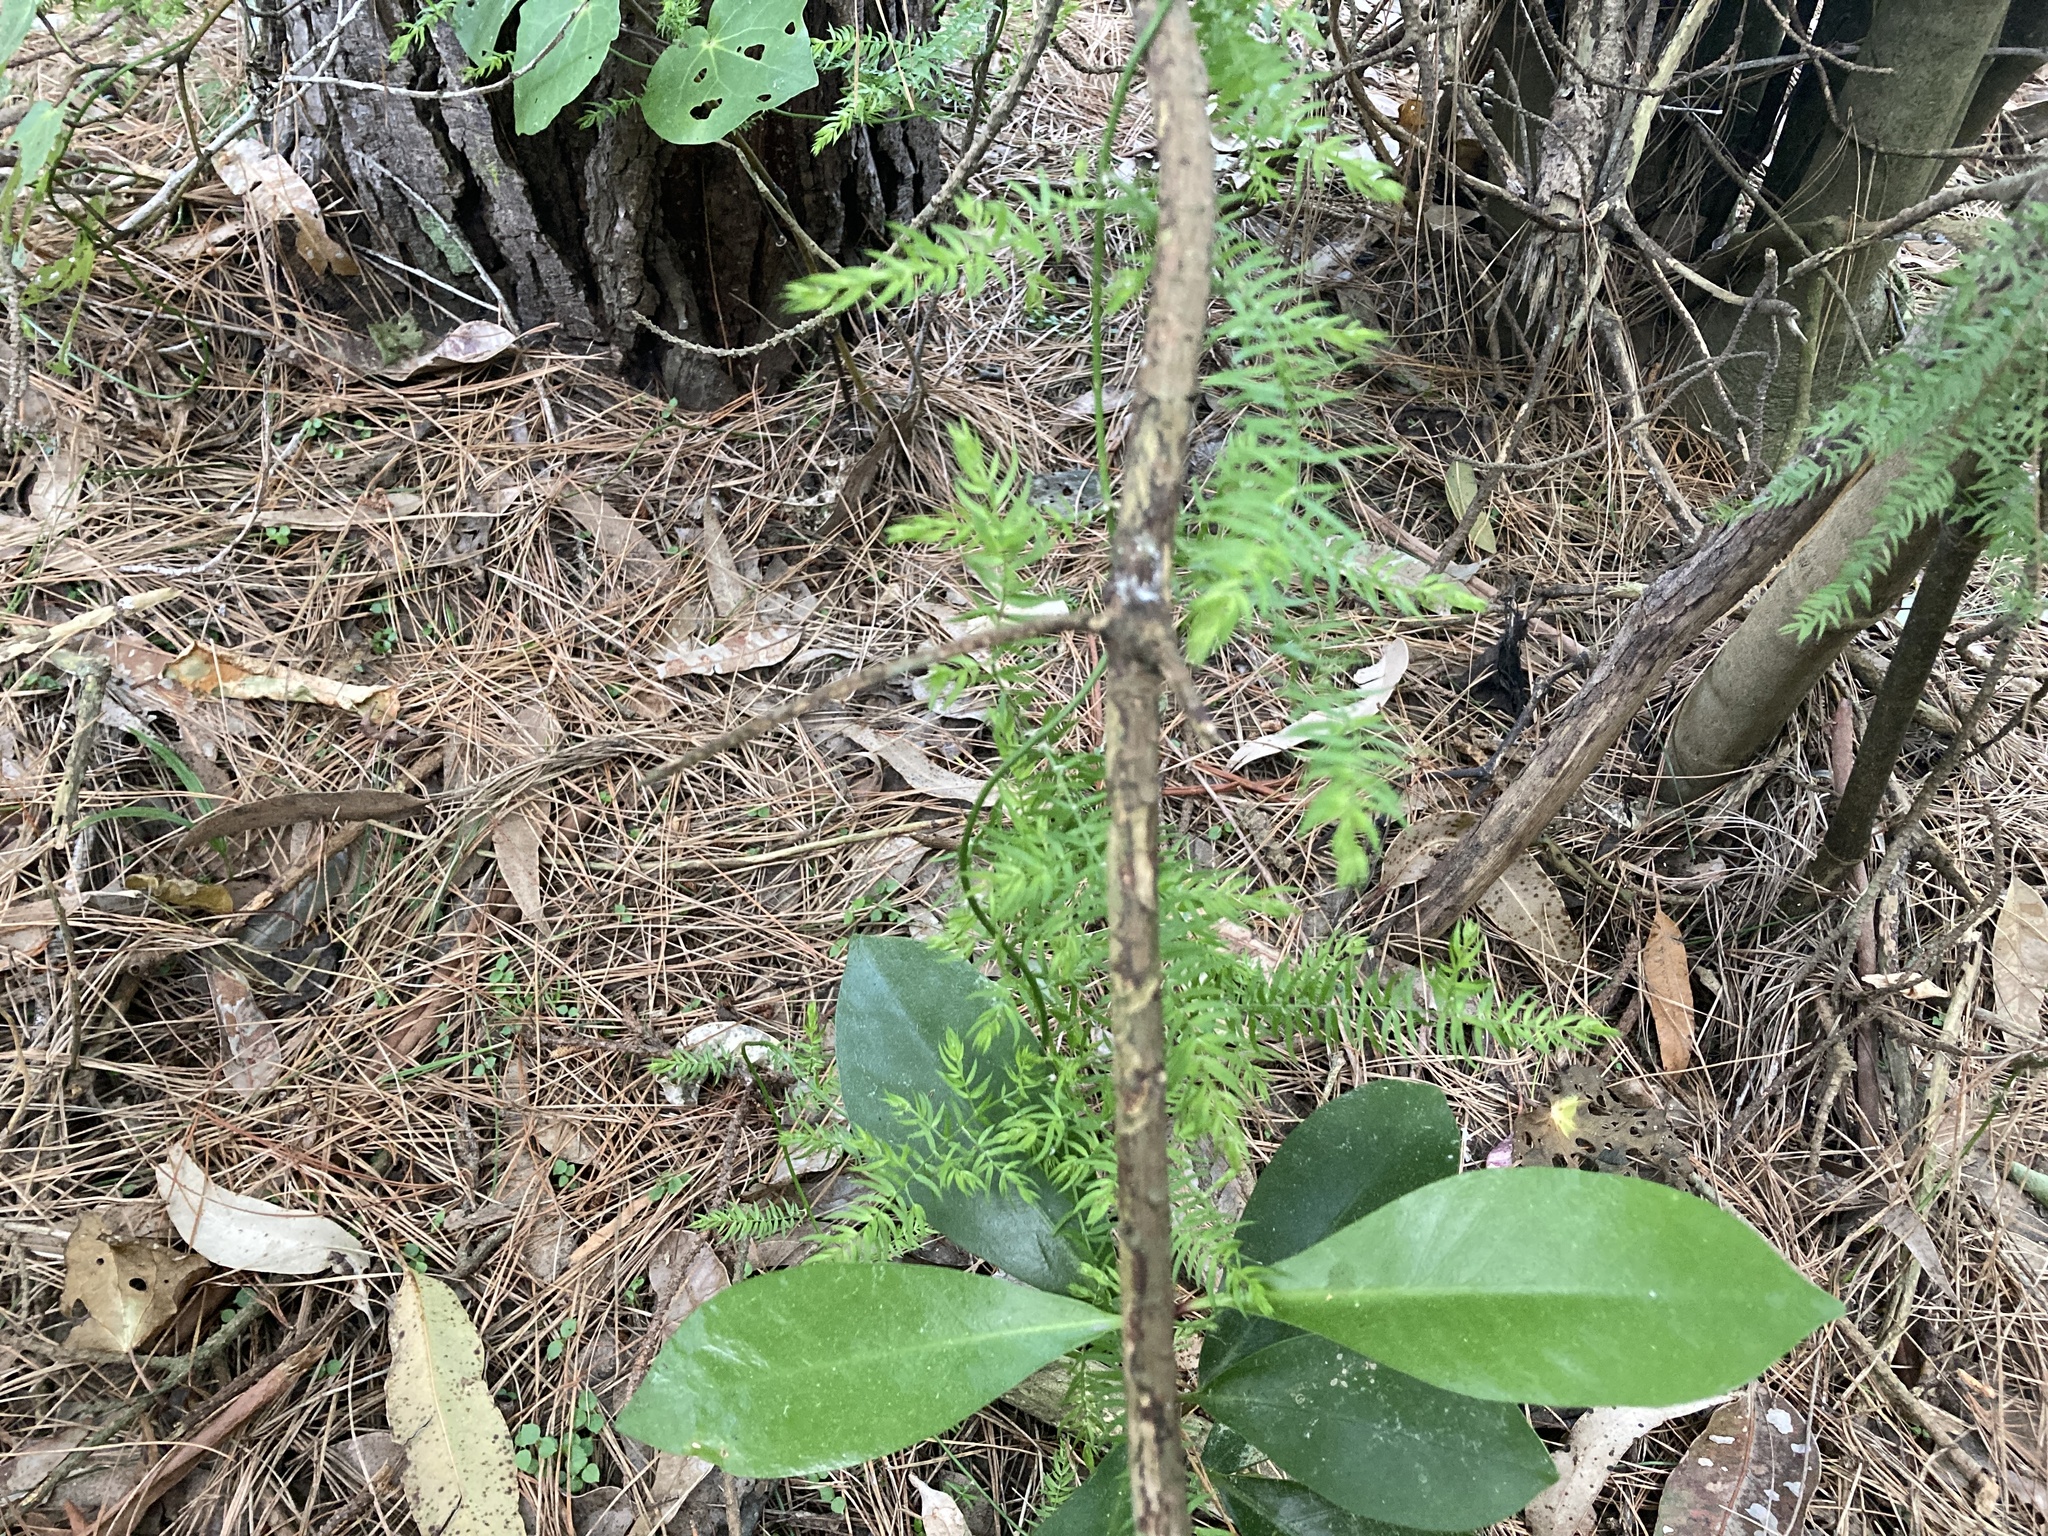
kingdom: Plantae
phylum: Tracheophyta
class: Liliopsida
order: Asparagales
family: Asparagaceae
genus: Asparagus
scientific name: Asparagus scandens
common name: Asparagus-fern
